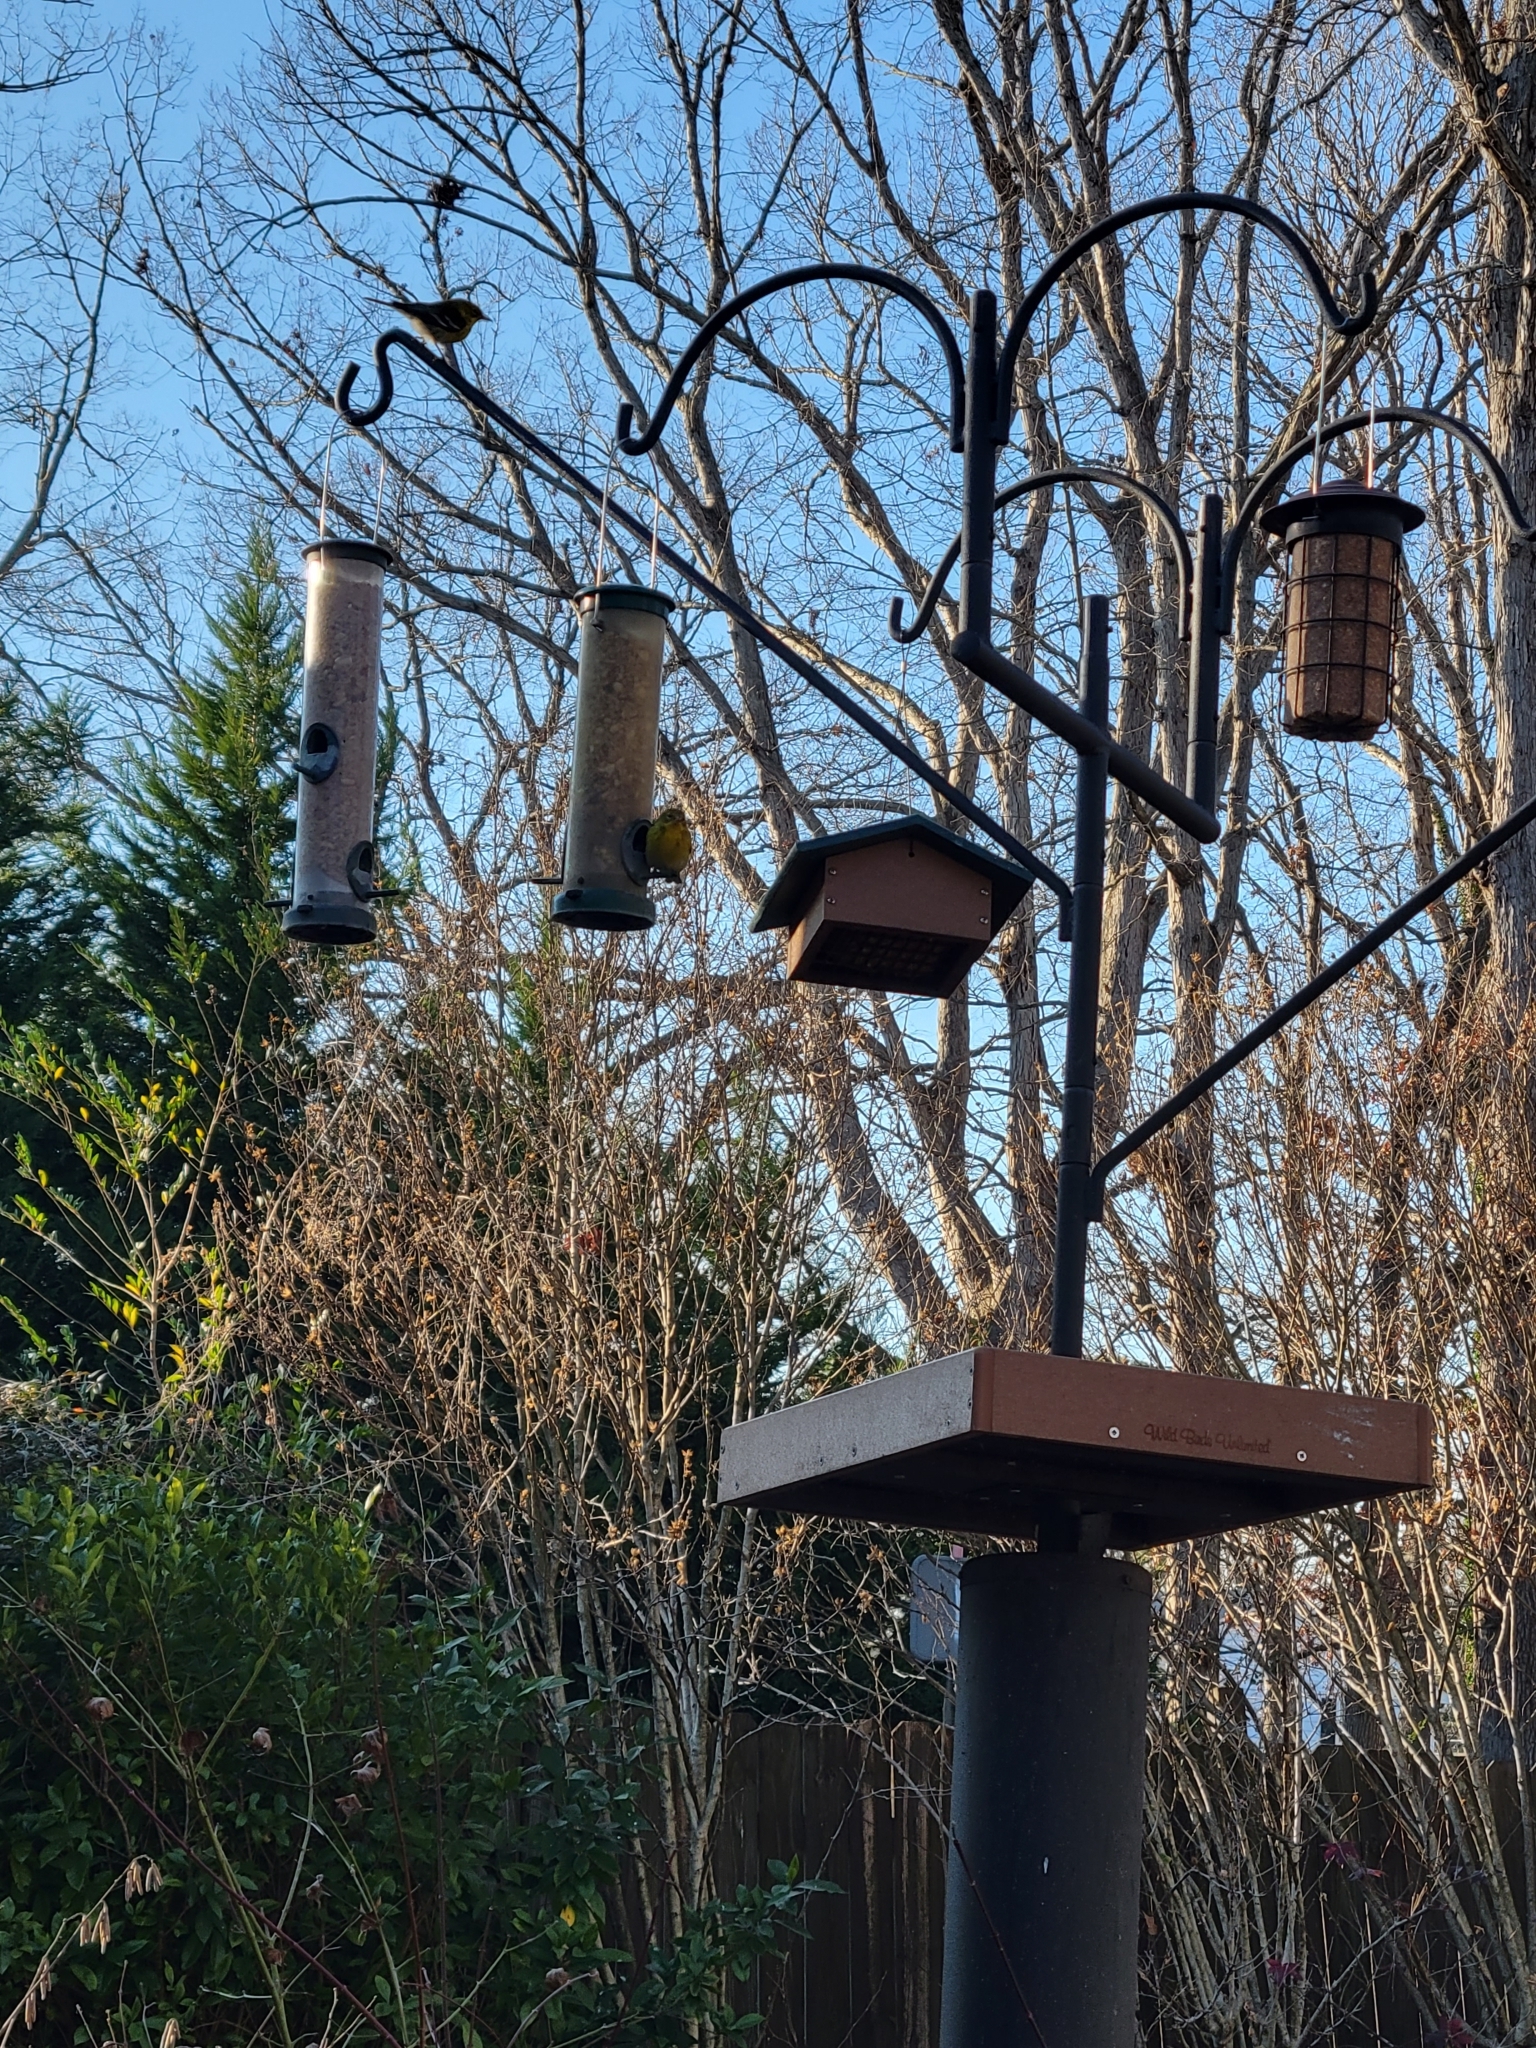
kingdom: Animalia
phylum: Chordata
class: Aves
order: Passeriformes
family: Parulidae
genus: Setophaga
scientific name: Setophaga pinus
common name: Pine warbler
